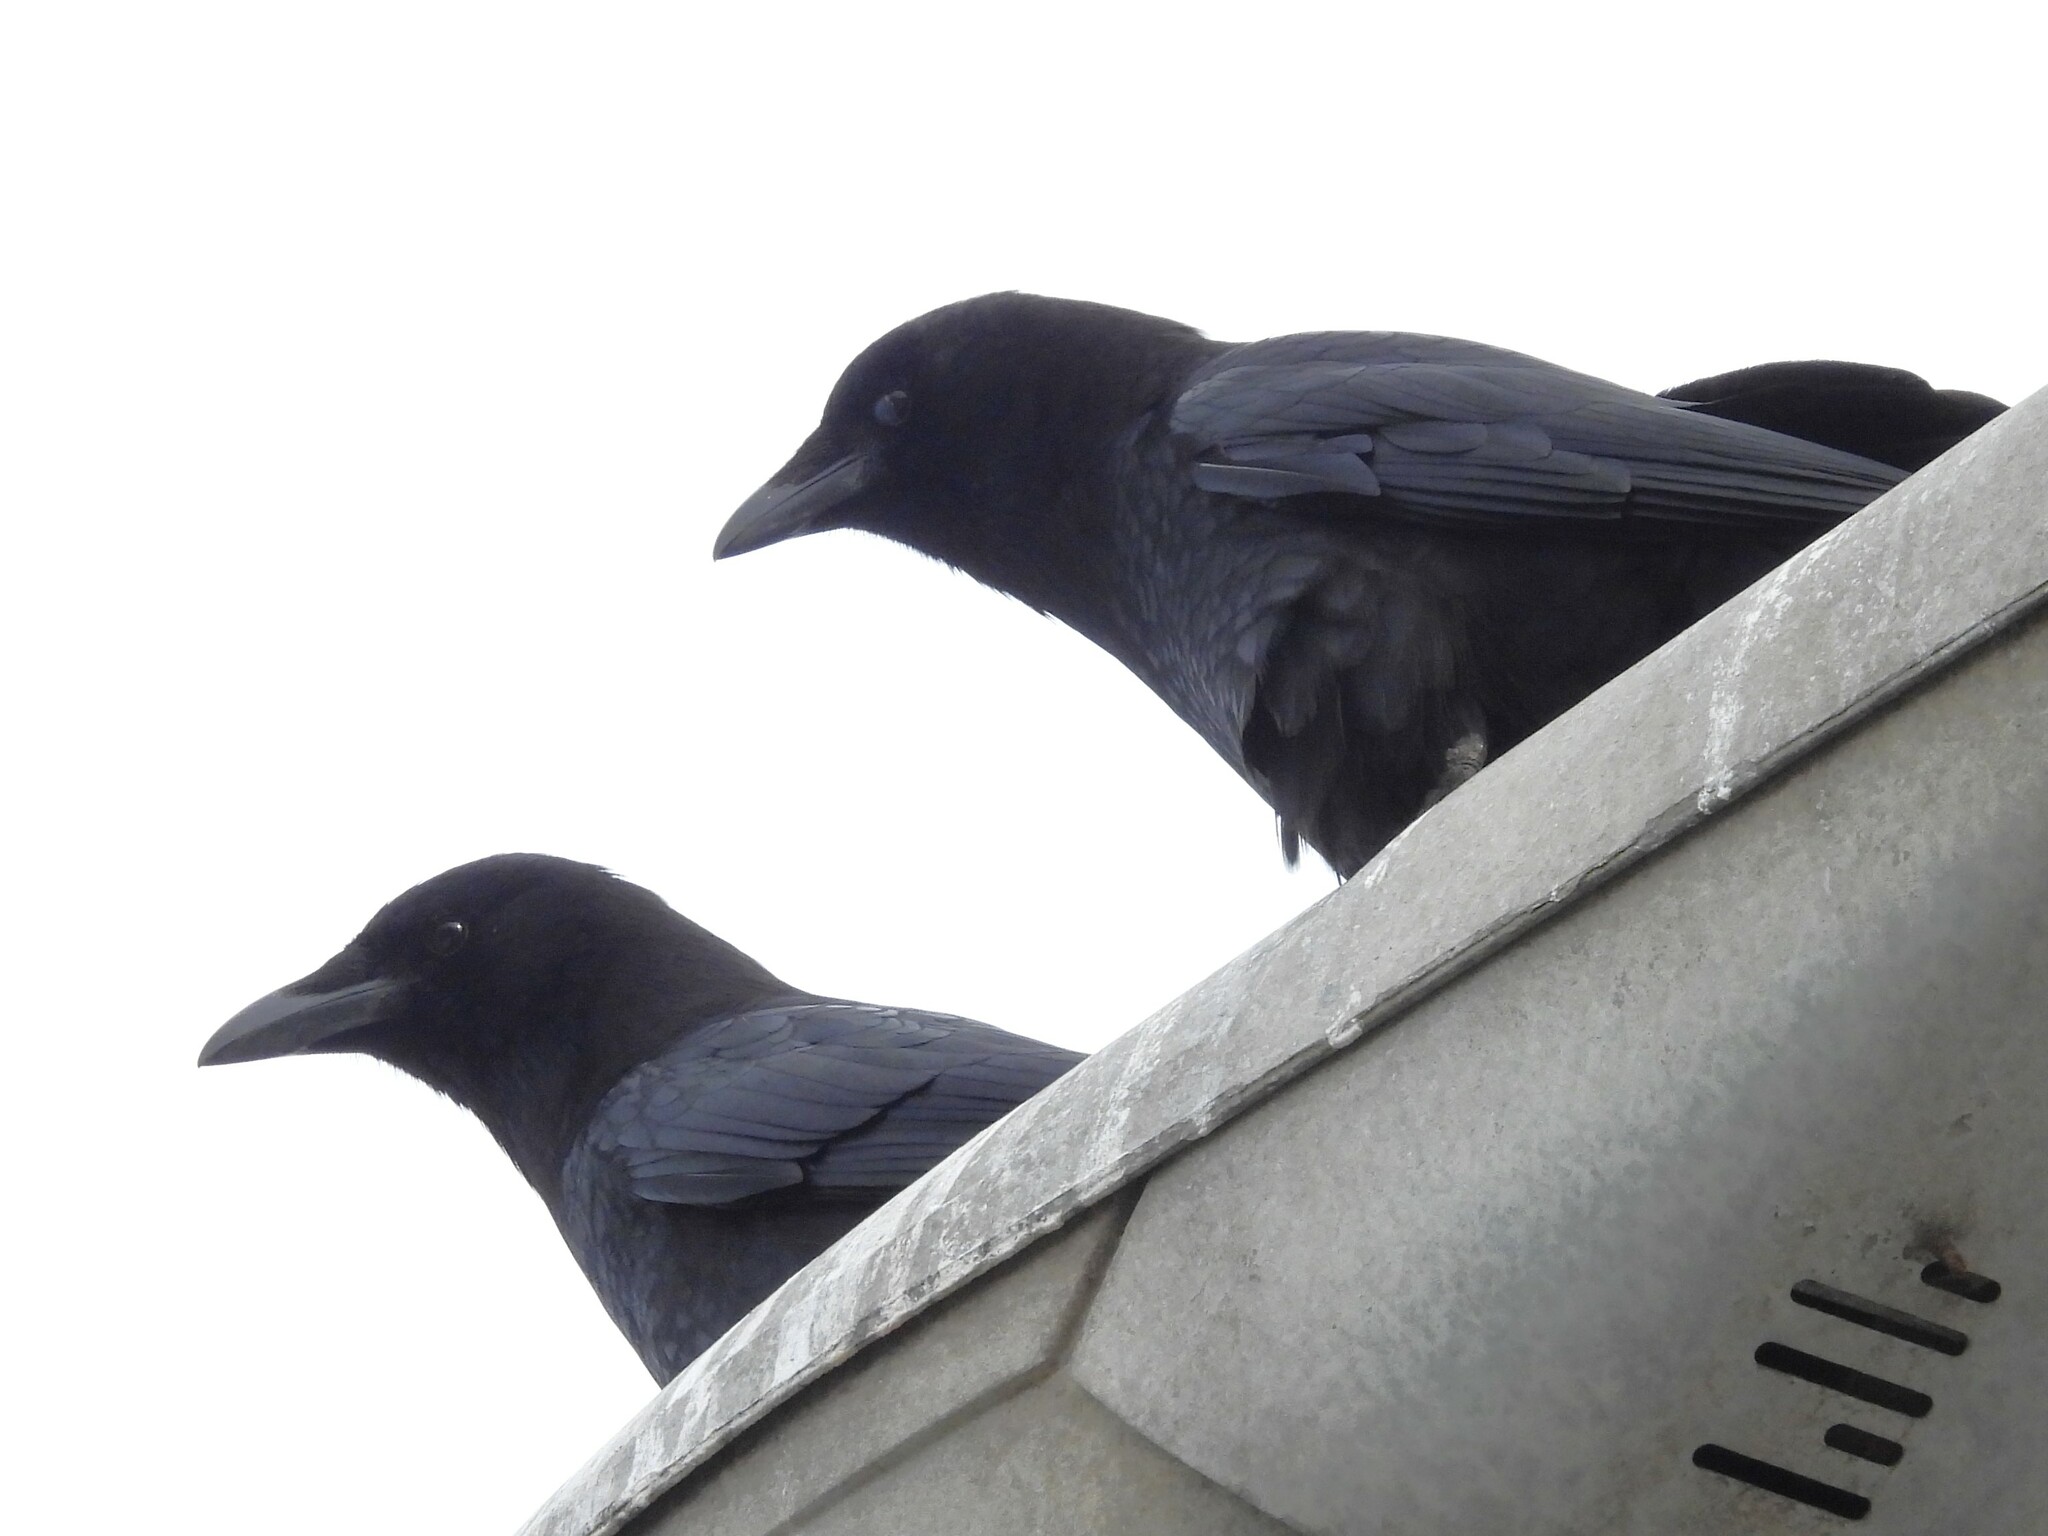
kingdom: Animalia
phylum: Chordata
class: Aves
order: Passeriformes
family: Corvidae
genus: Corvus
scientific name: Corvus brachyrhynchos
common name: American crow
